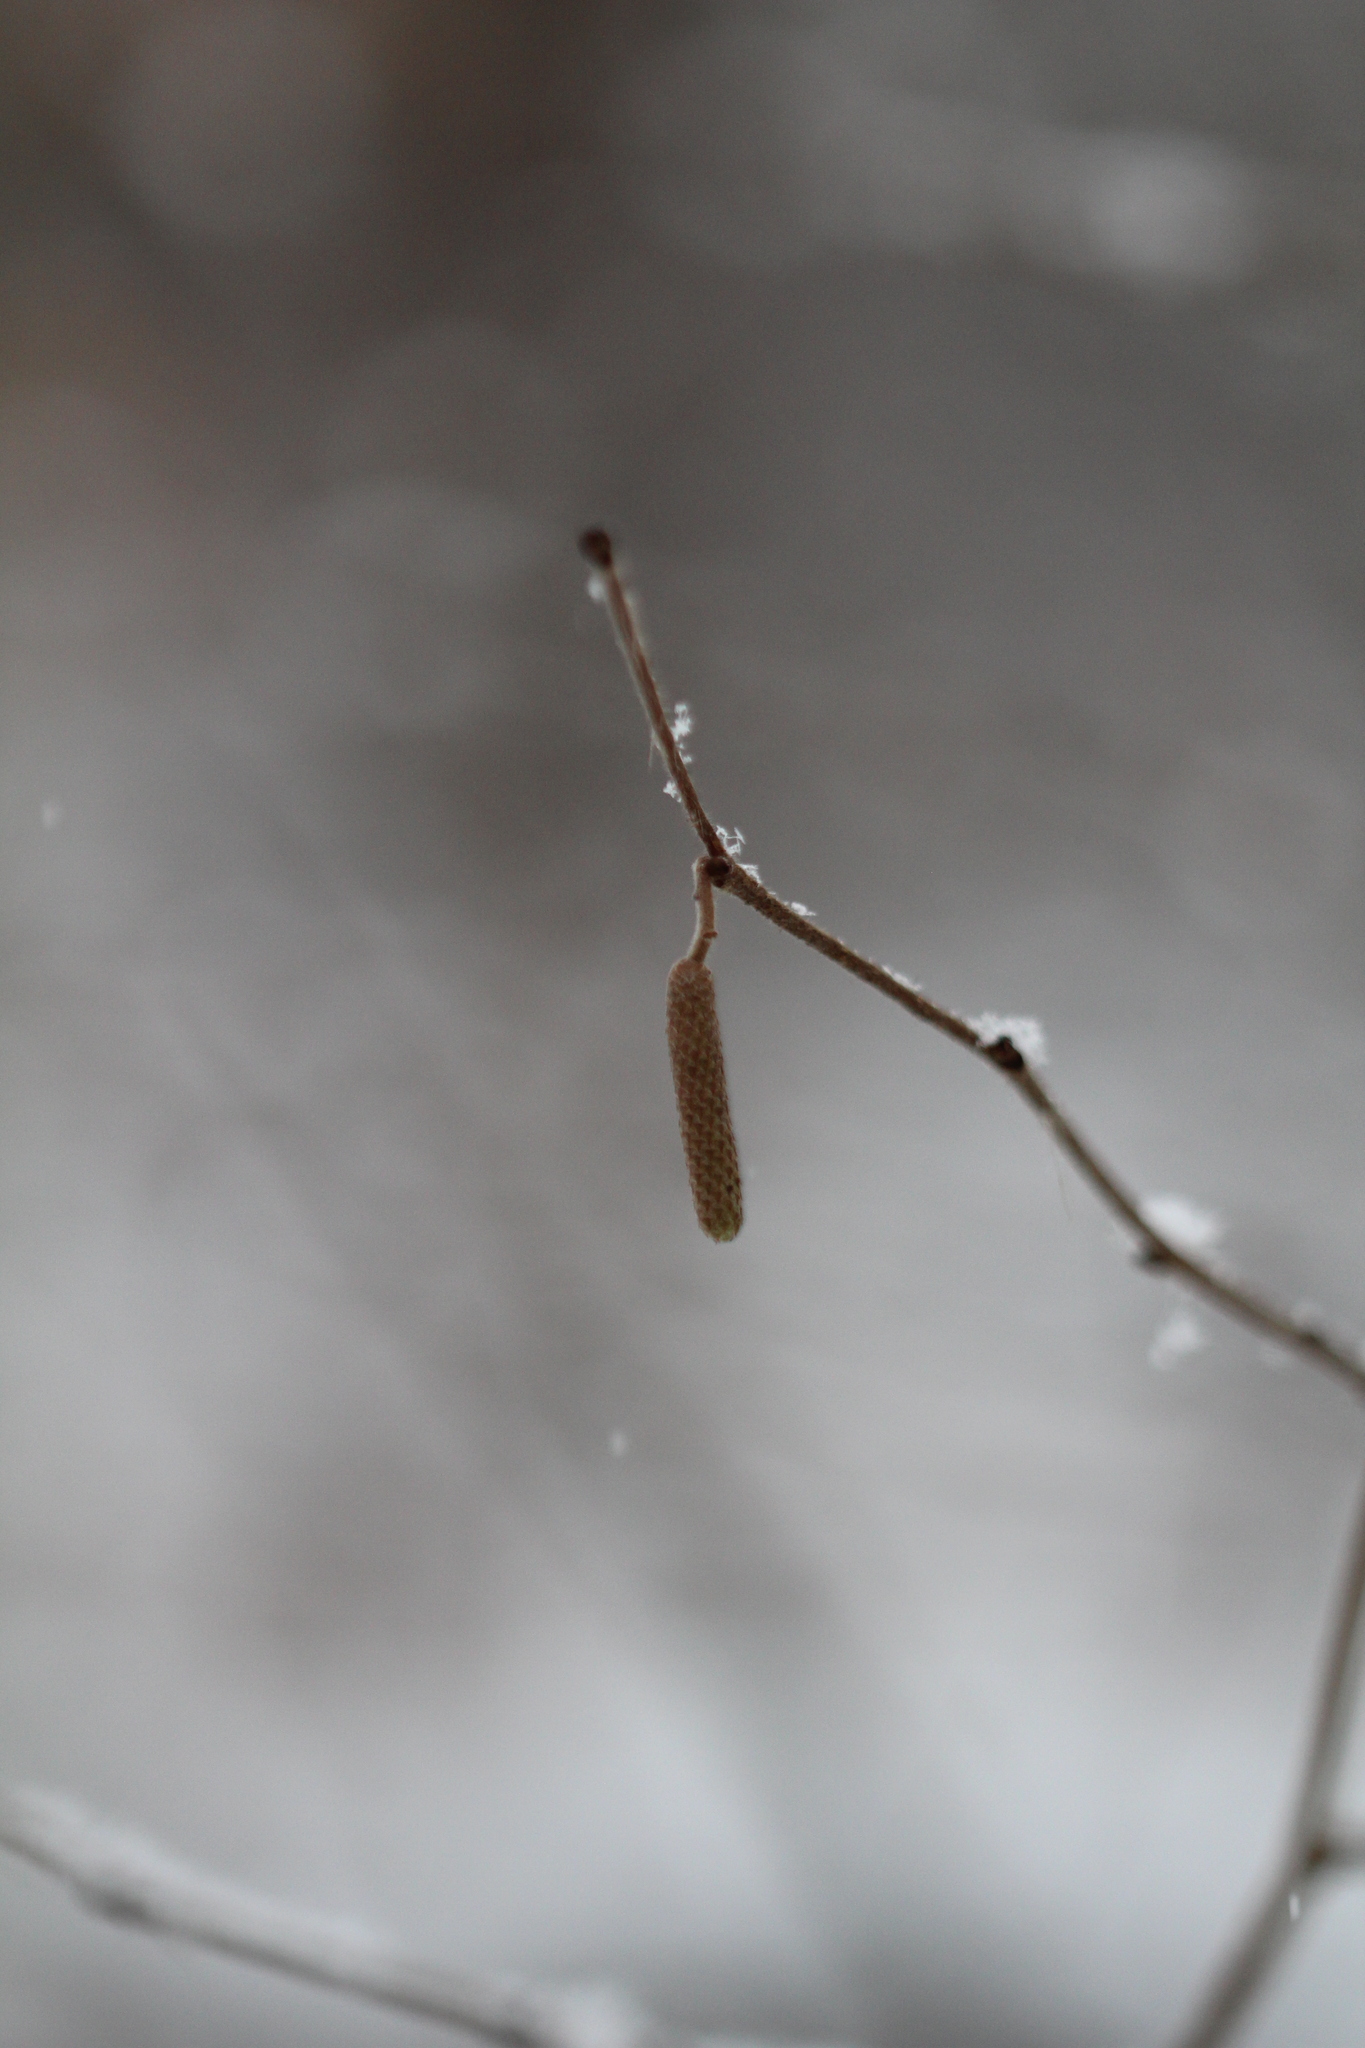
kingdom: Plantae
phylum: Tracheophyta
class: Magnoliopsida
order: Fagales
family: Betulaceae
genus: Corylus
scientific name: Corylus americana
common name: American hazel
